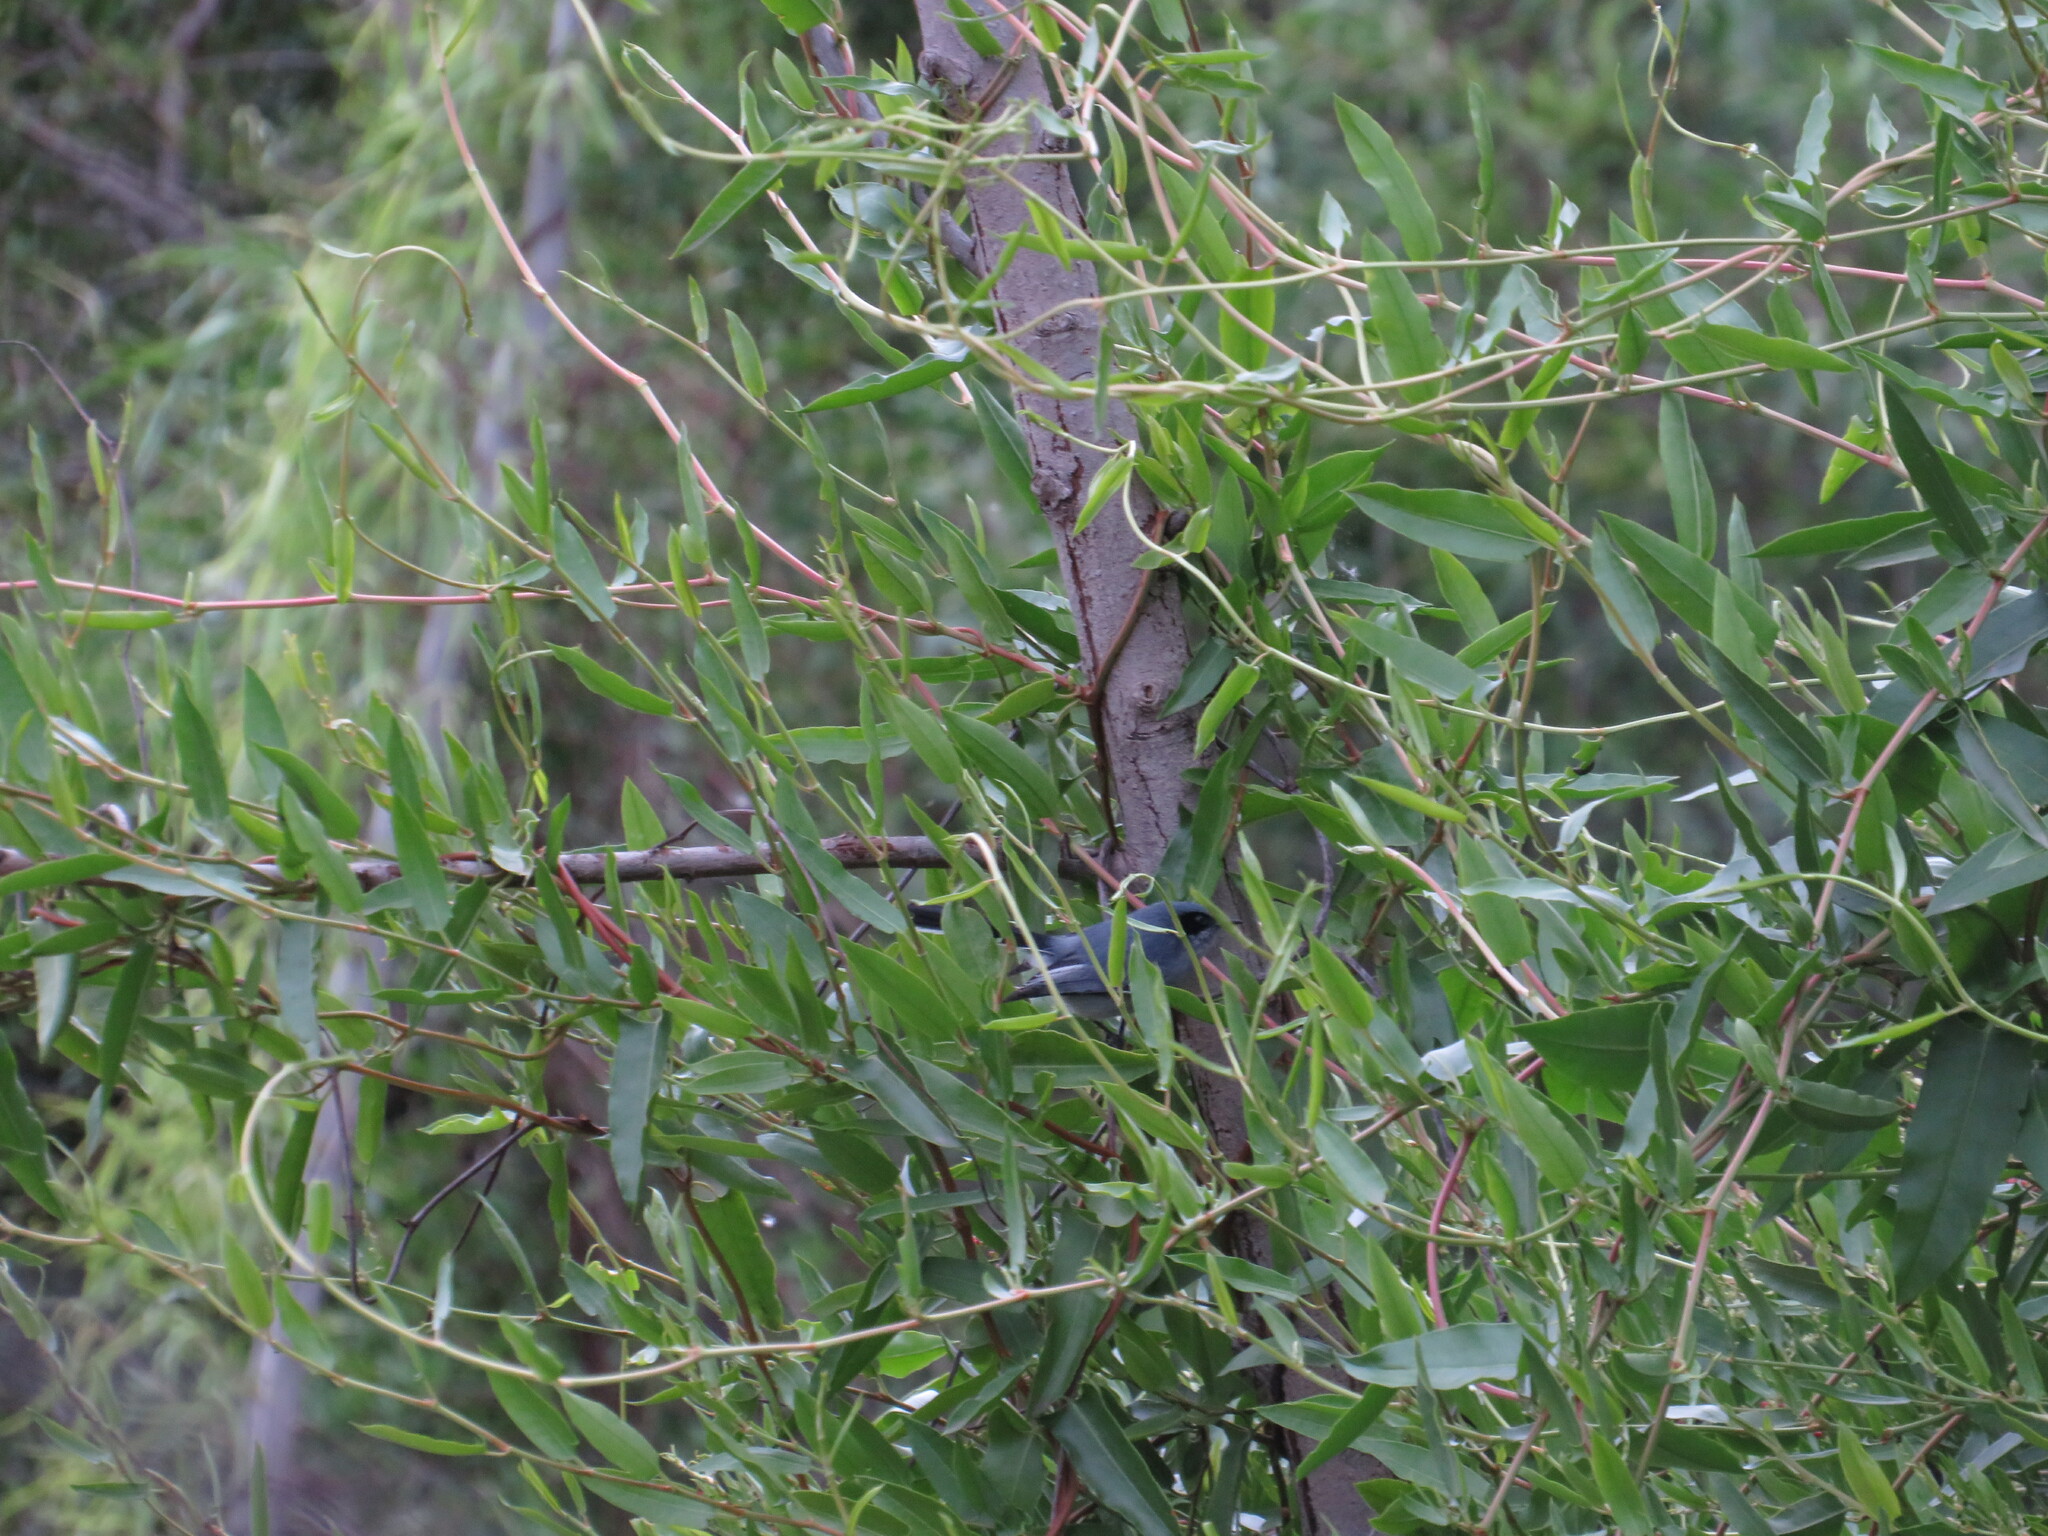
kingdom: Animalia
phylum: Chordata
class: Aves
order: Passeriformes
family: Polioptilidae
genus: Polioptila
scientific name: Polioptila dumicola
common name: Masked gnatcatcher
